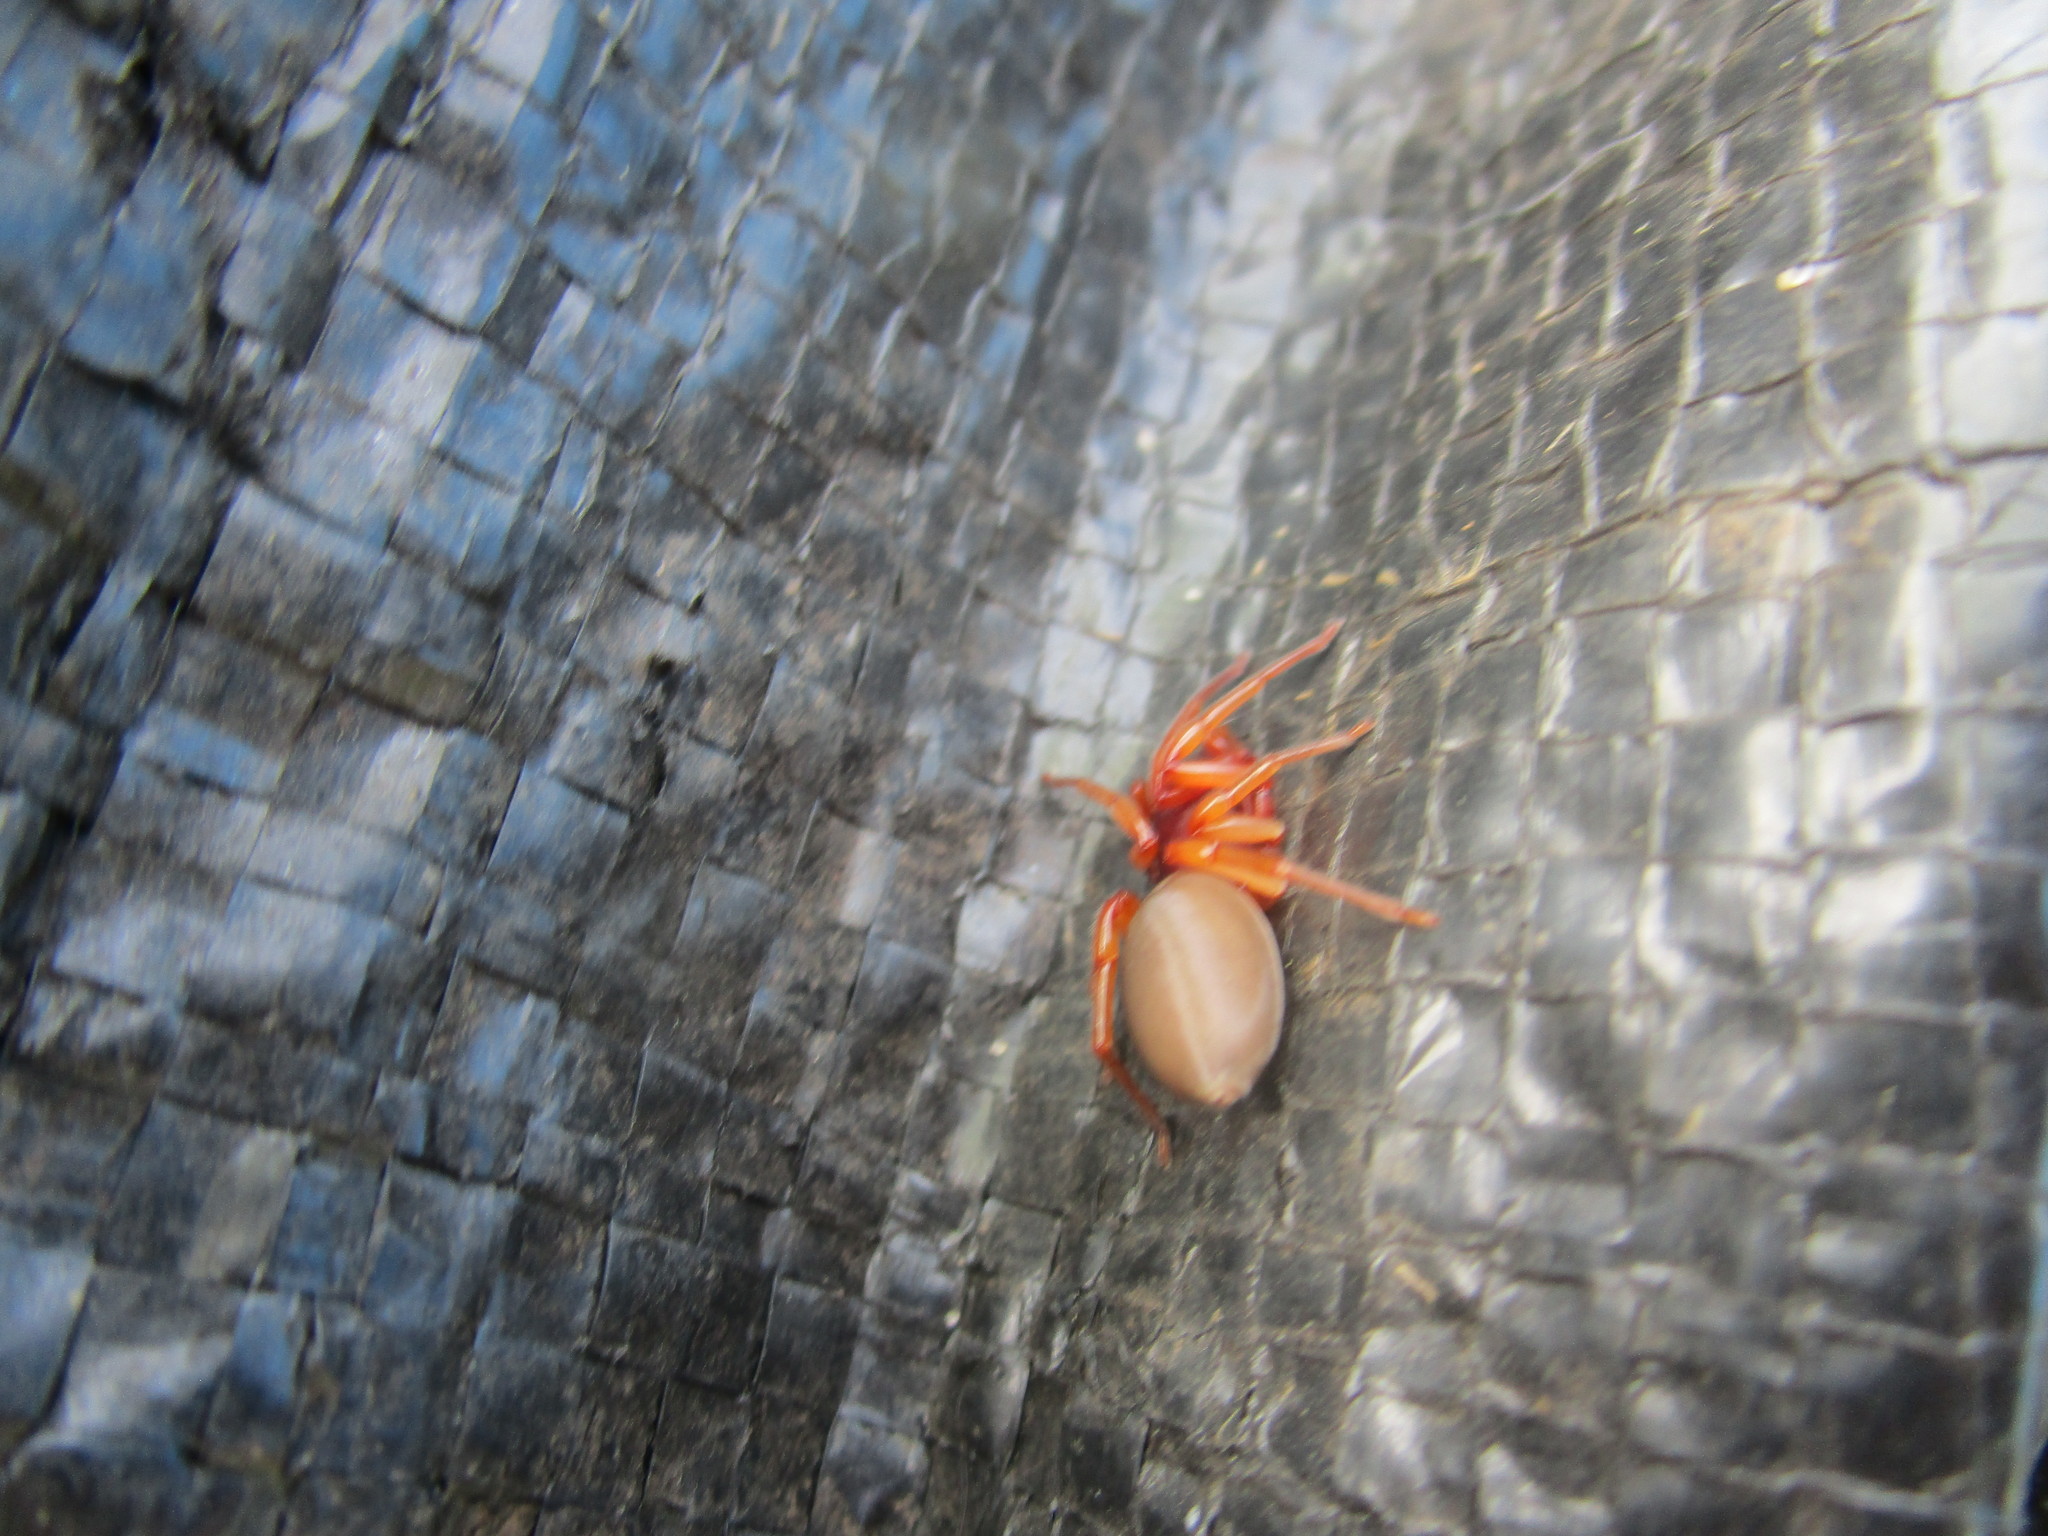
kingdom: Animalia
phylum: Arthropoda
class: Arachnida
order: Araneae
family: Dysderidae
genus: Dysdera
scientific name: Dysdera crocata
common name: Woodlouse spider
